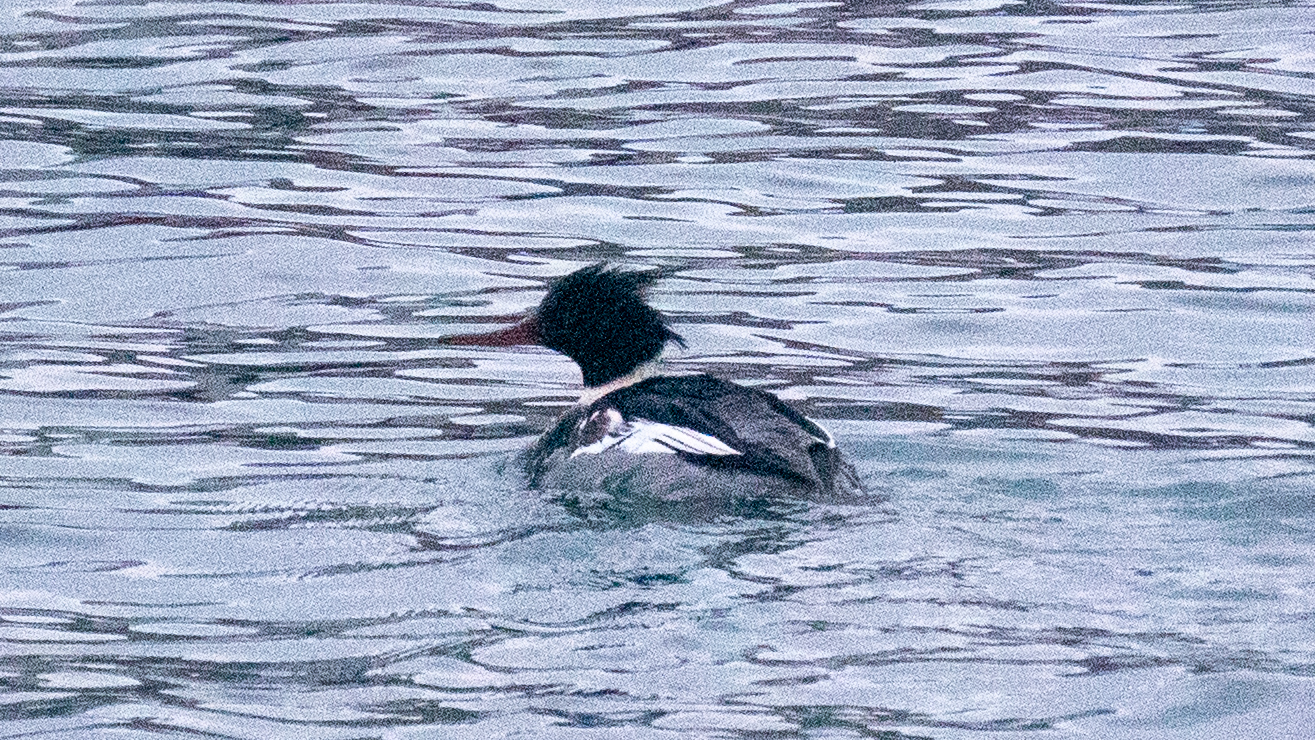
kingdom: Animalia
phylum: Chordata
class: Aves
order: Anseriformes
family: Anatidae
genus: Mergus
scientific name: Mergus serrator
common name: Red-breasted merganser
